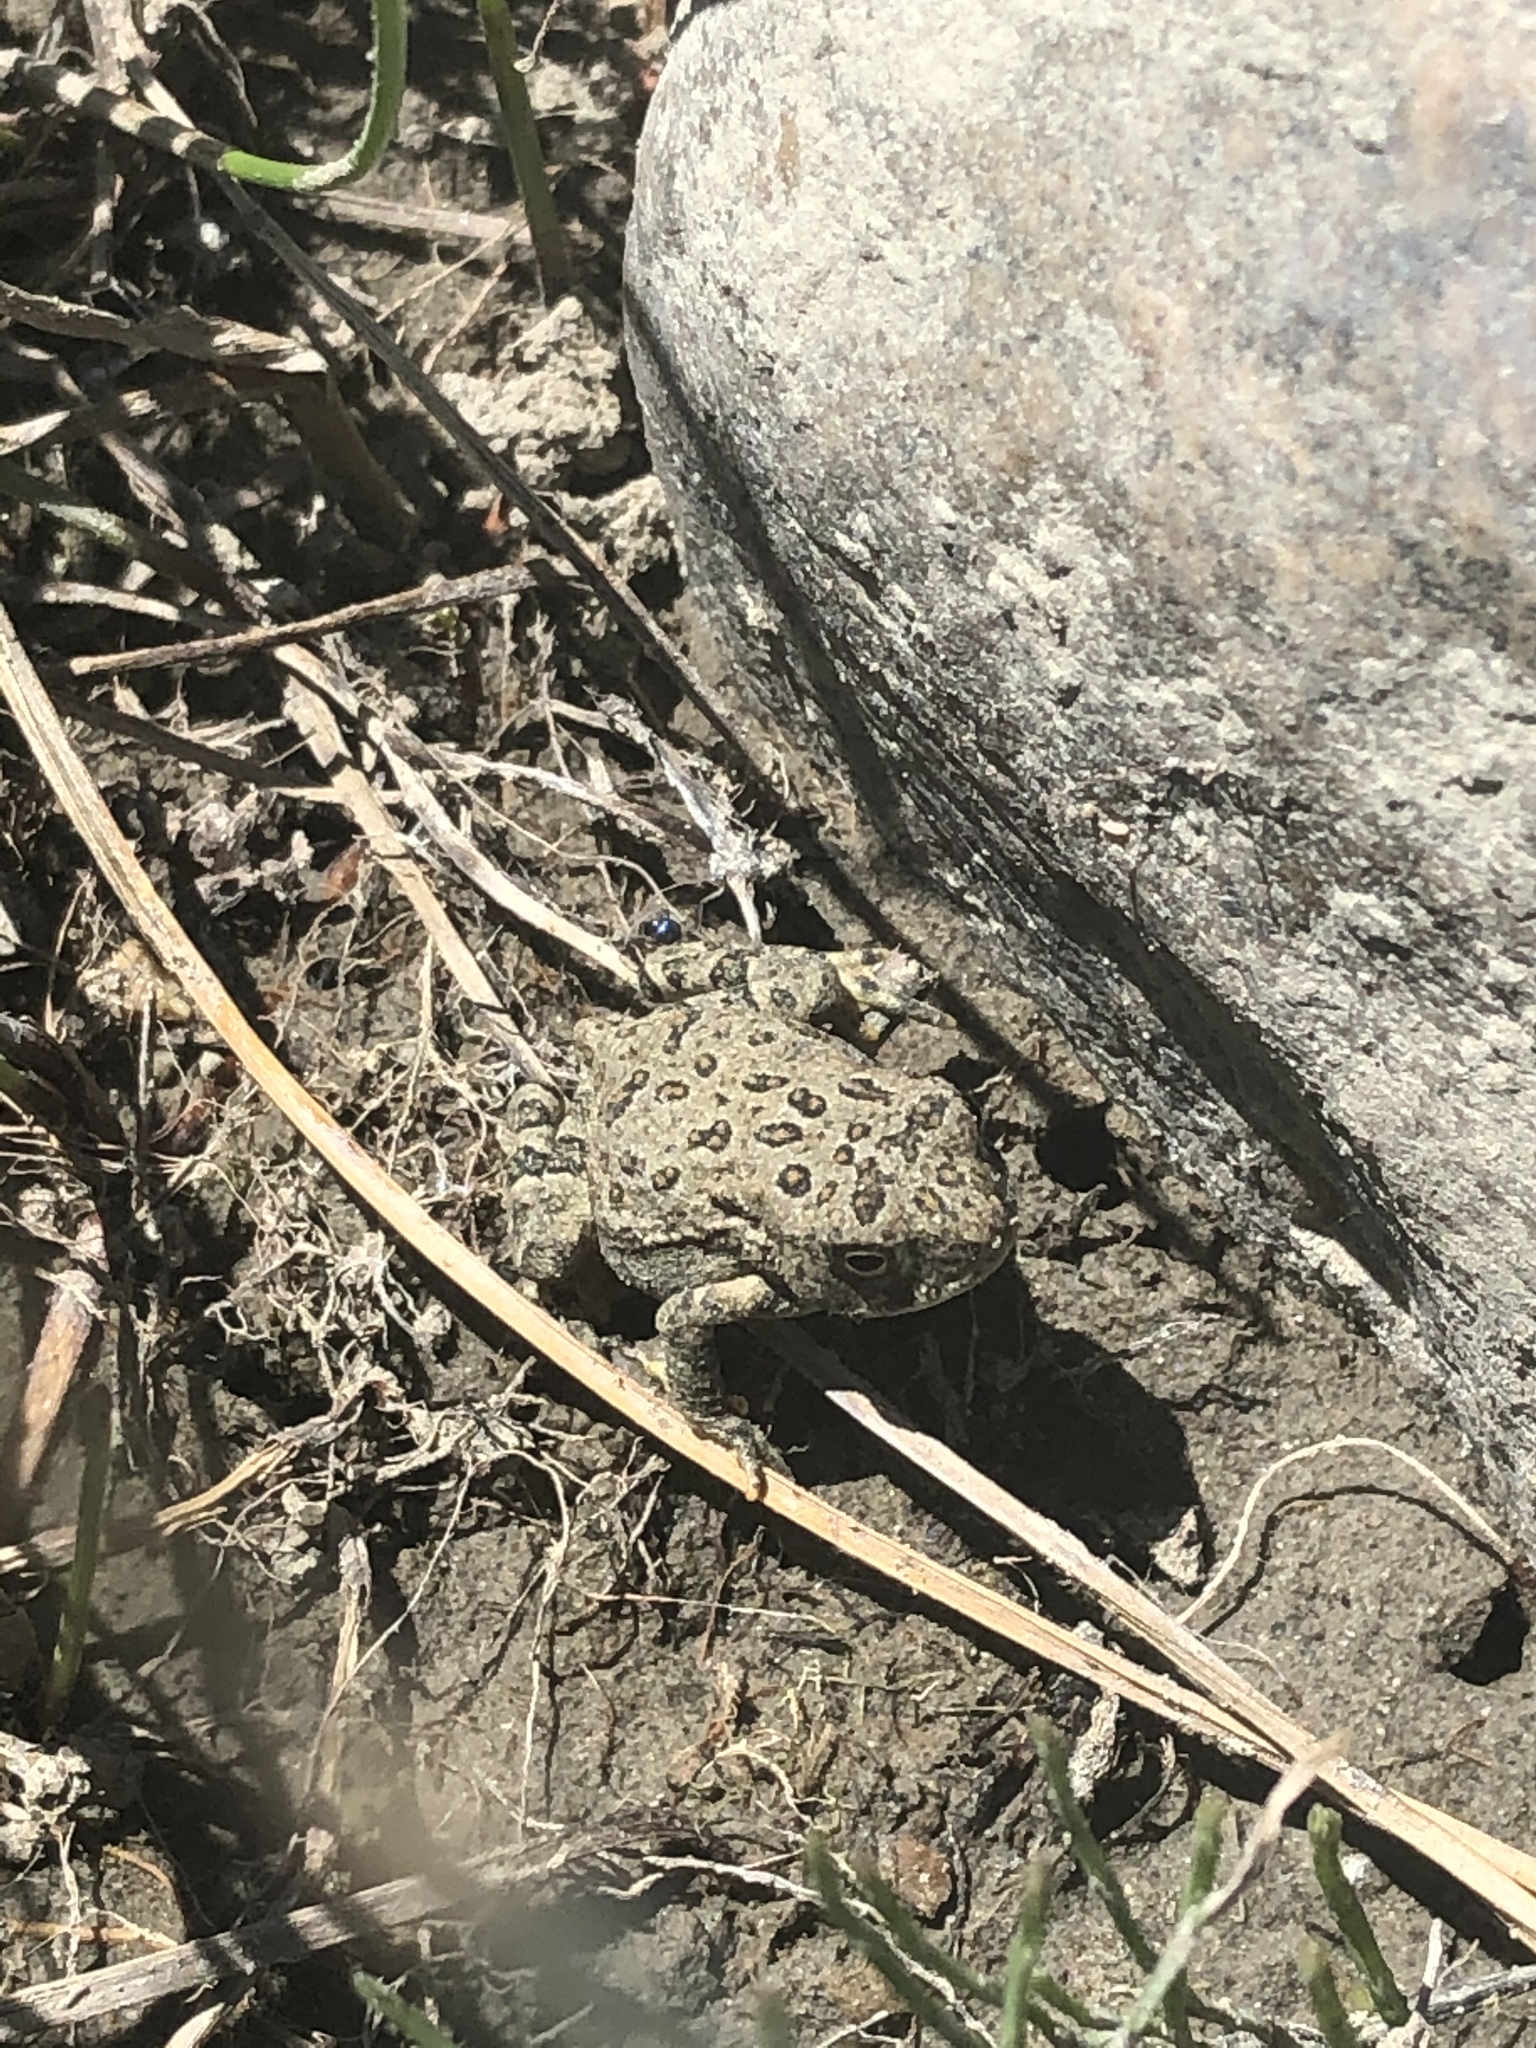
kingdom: Animalia
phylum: Chordata
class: Amphibia
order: Anura
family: Bufonidae
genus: Anaxyrus
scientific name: Anaxyrus woodhousii
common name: Woodhouse's toad
